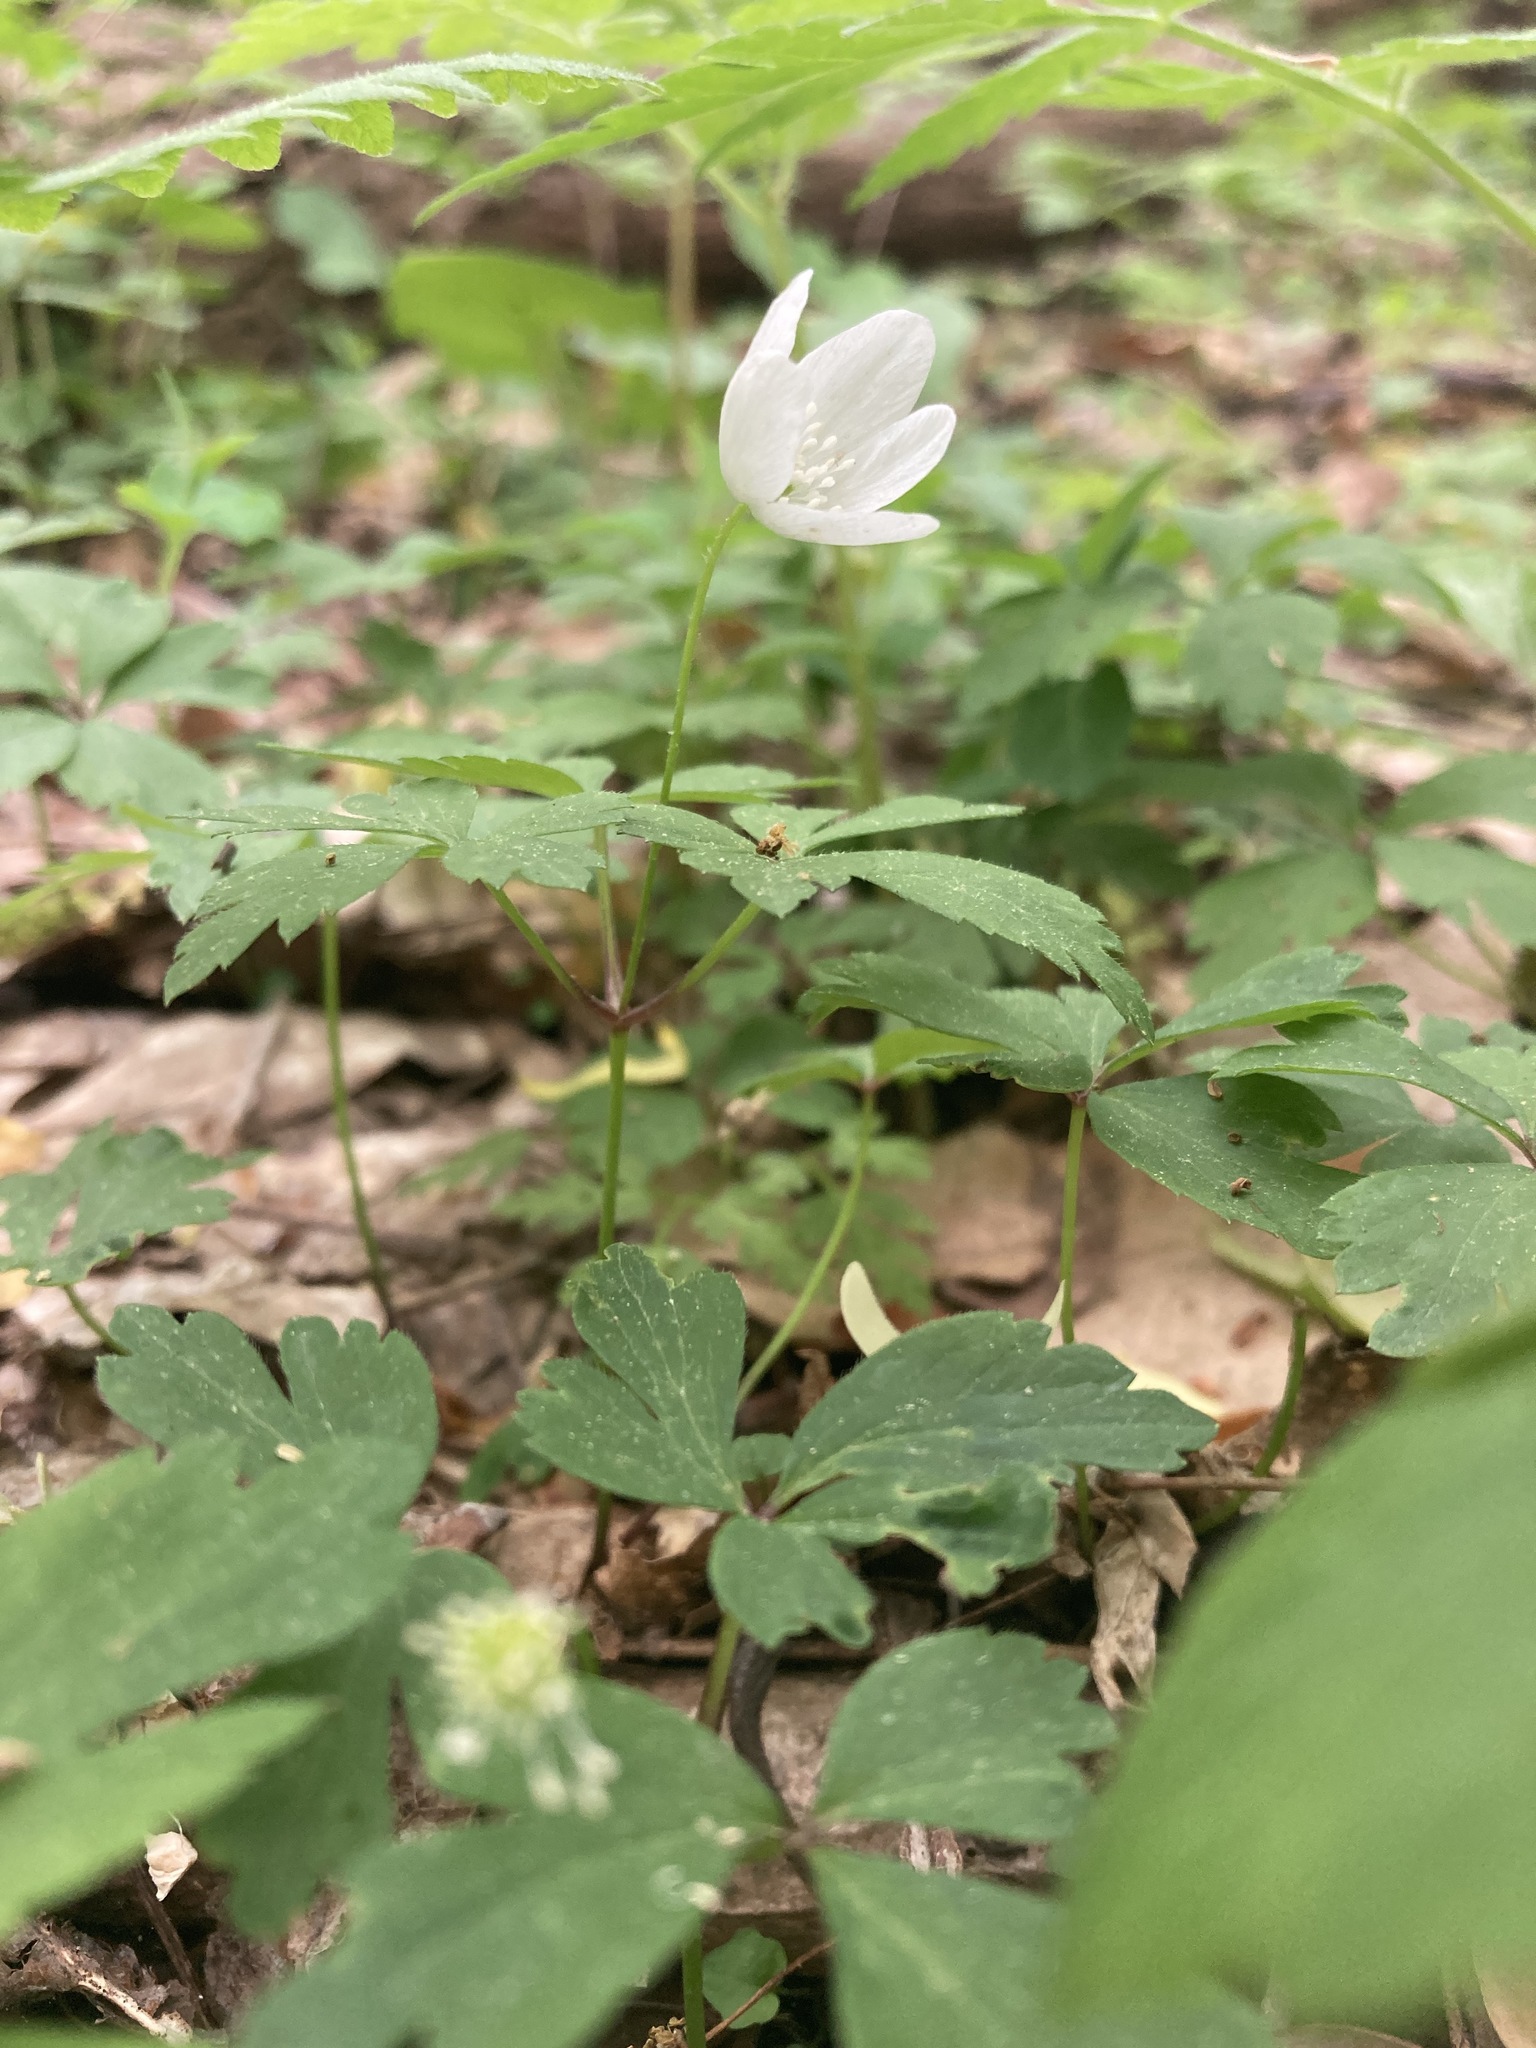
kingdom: Plantae
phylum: Tracheophyta
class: Magnoliopsida
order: Ranunculales
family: Ranunculaceae
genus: Anemone
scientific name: Anemone quinquefolia
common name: Wood anemone
